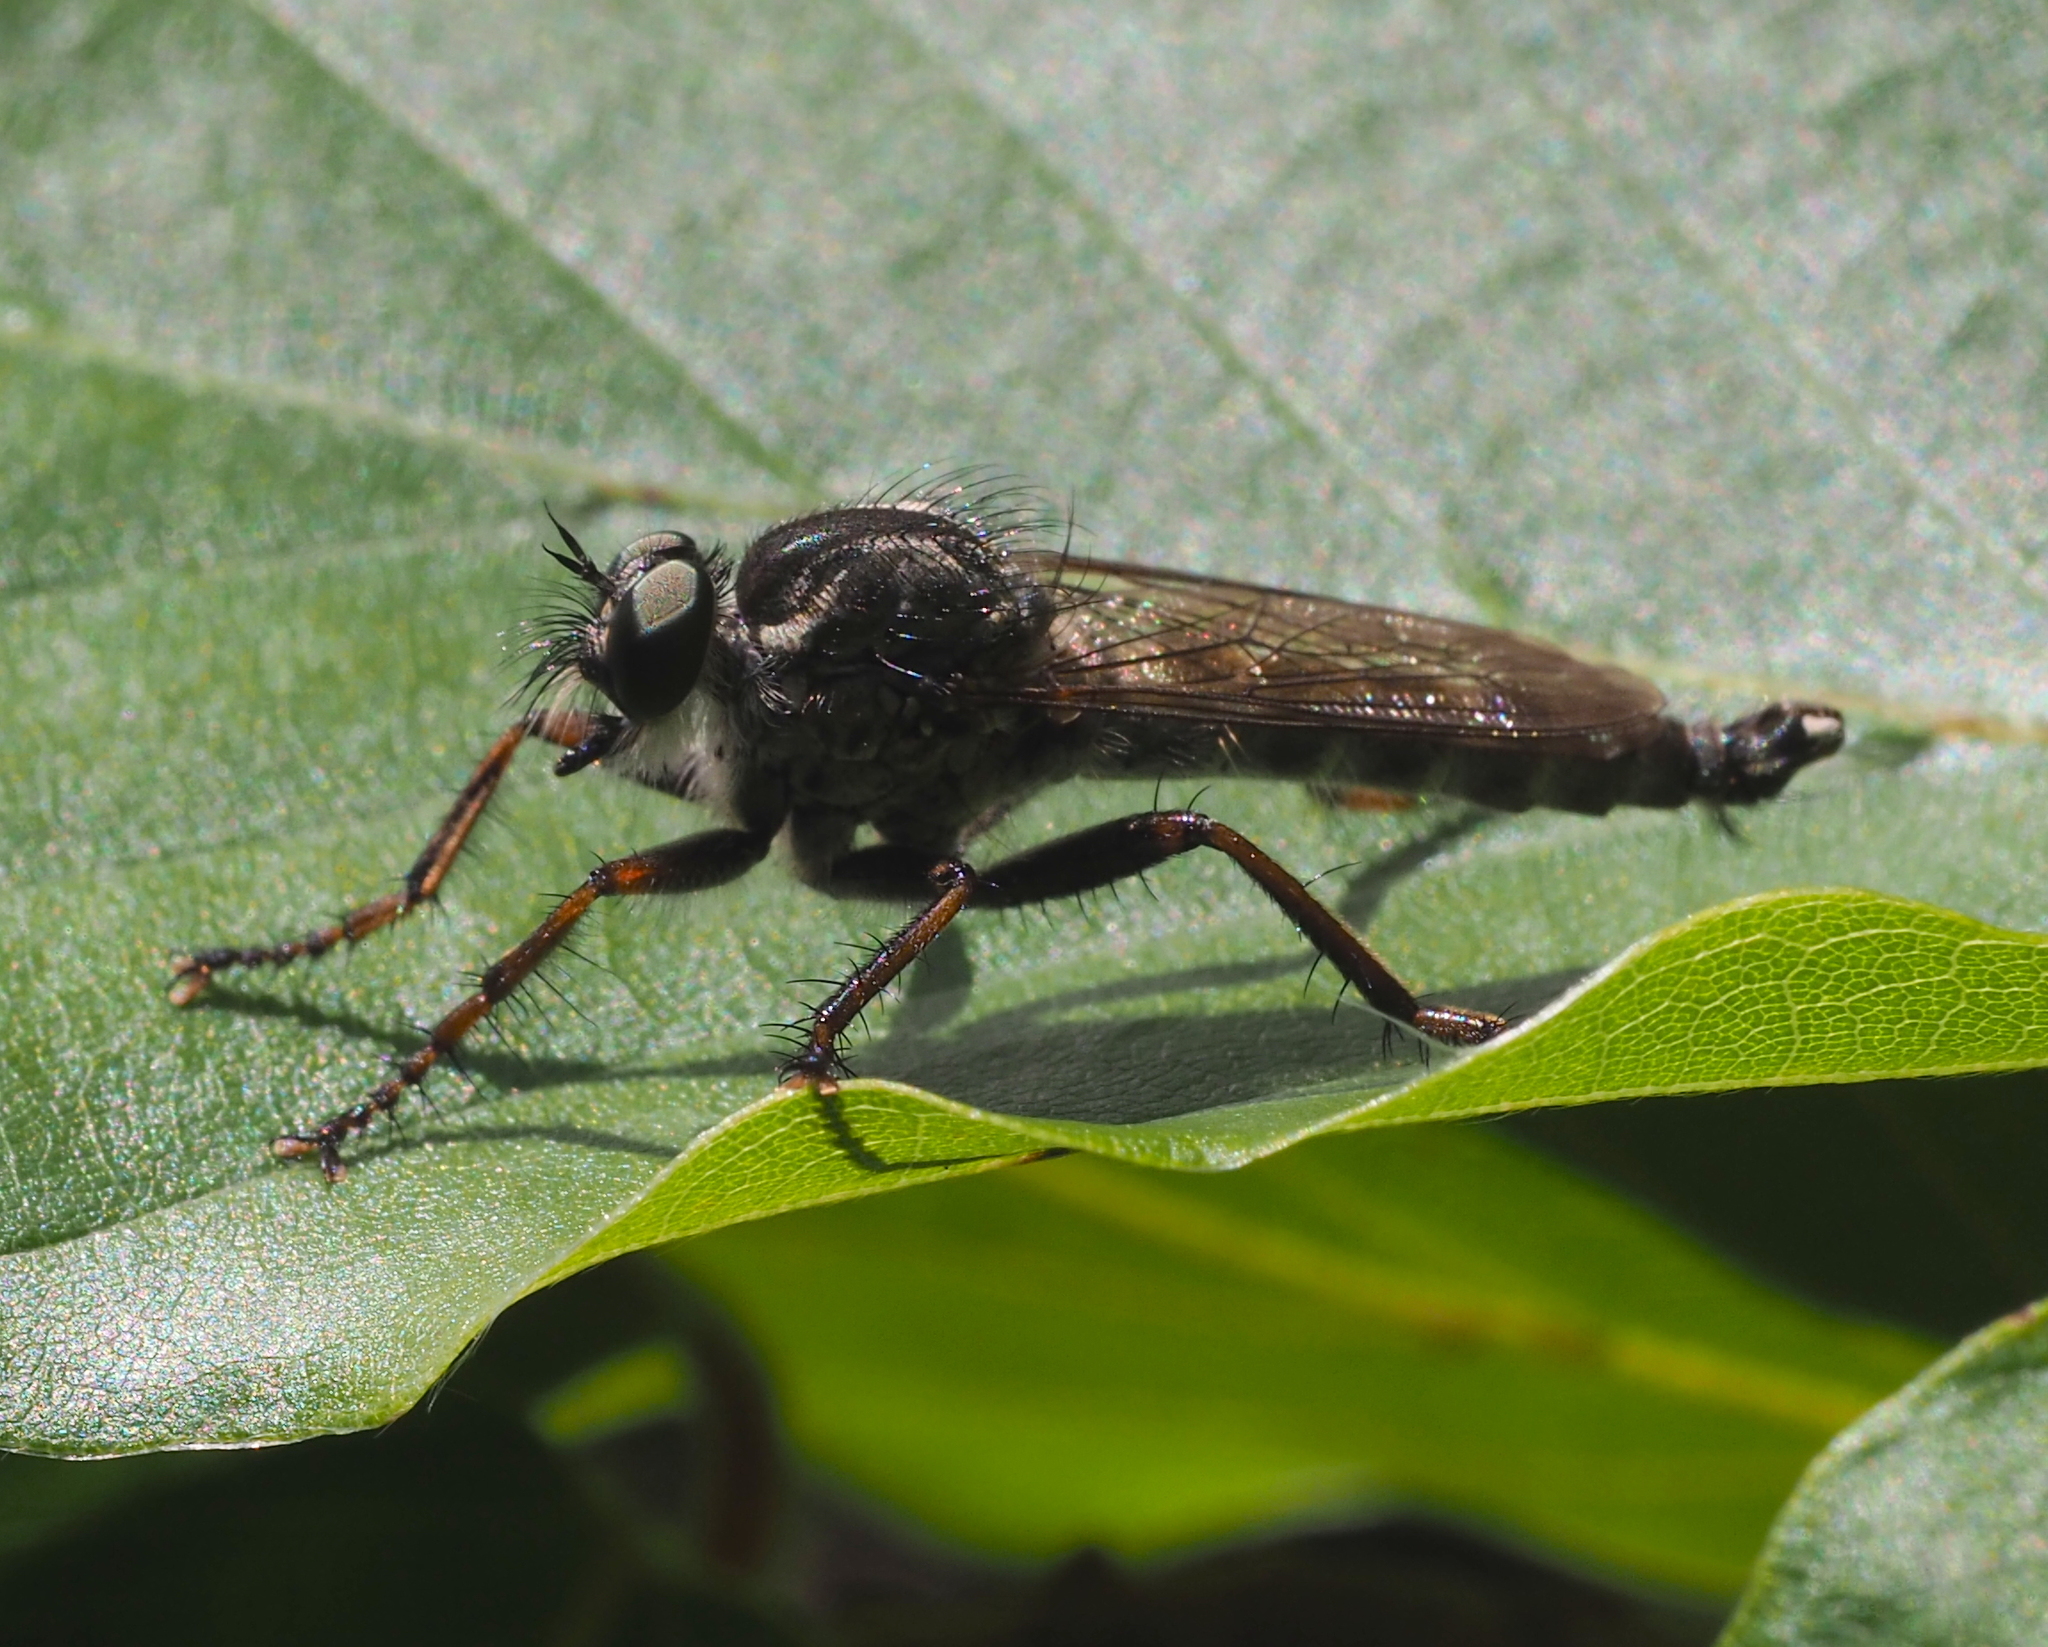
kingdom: Animalia
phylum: Arthropoda
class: Insecta
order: Diptera
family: Asilidae
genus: Machimus
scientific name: Machimus atricapillus
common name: Kite-tailed robberfly
